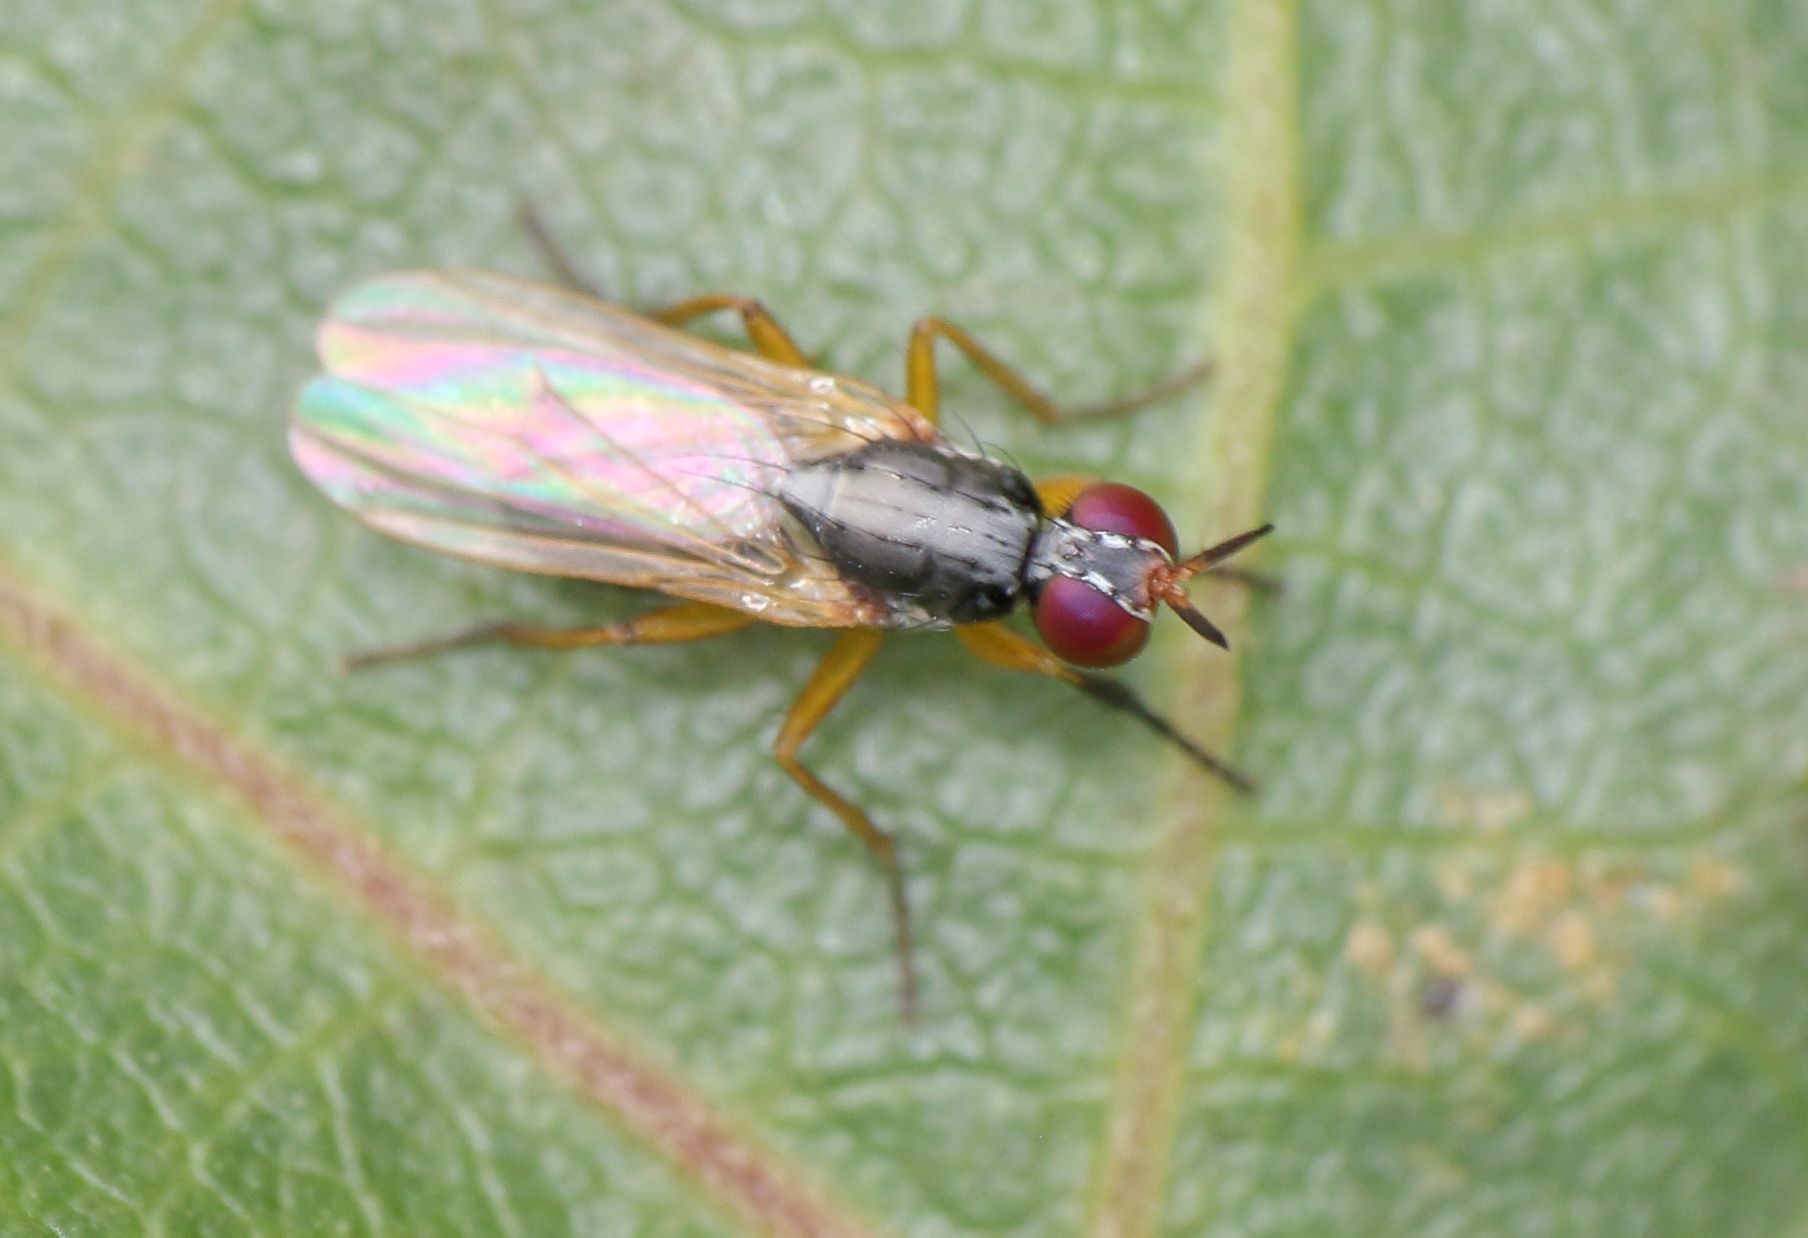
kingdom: Animalia
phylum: Arthropoda
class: Insecta
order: Diptera
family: Muscidae
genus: Anaphalantus
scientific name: Anaphalantus longicornis
